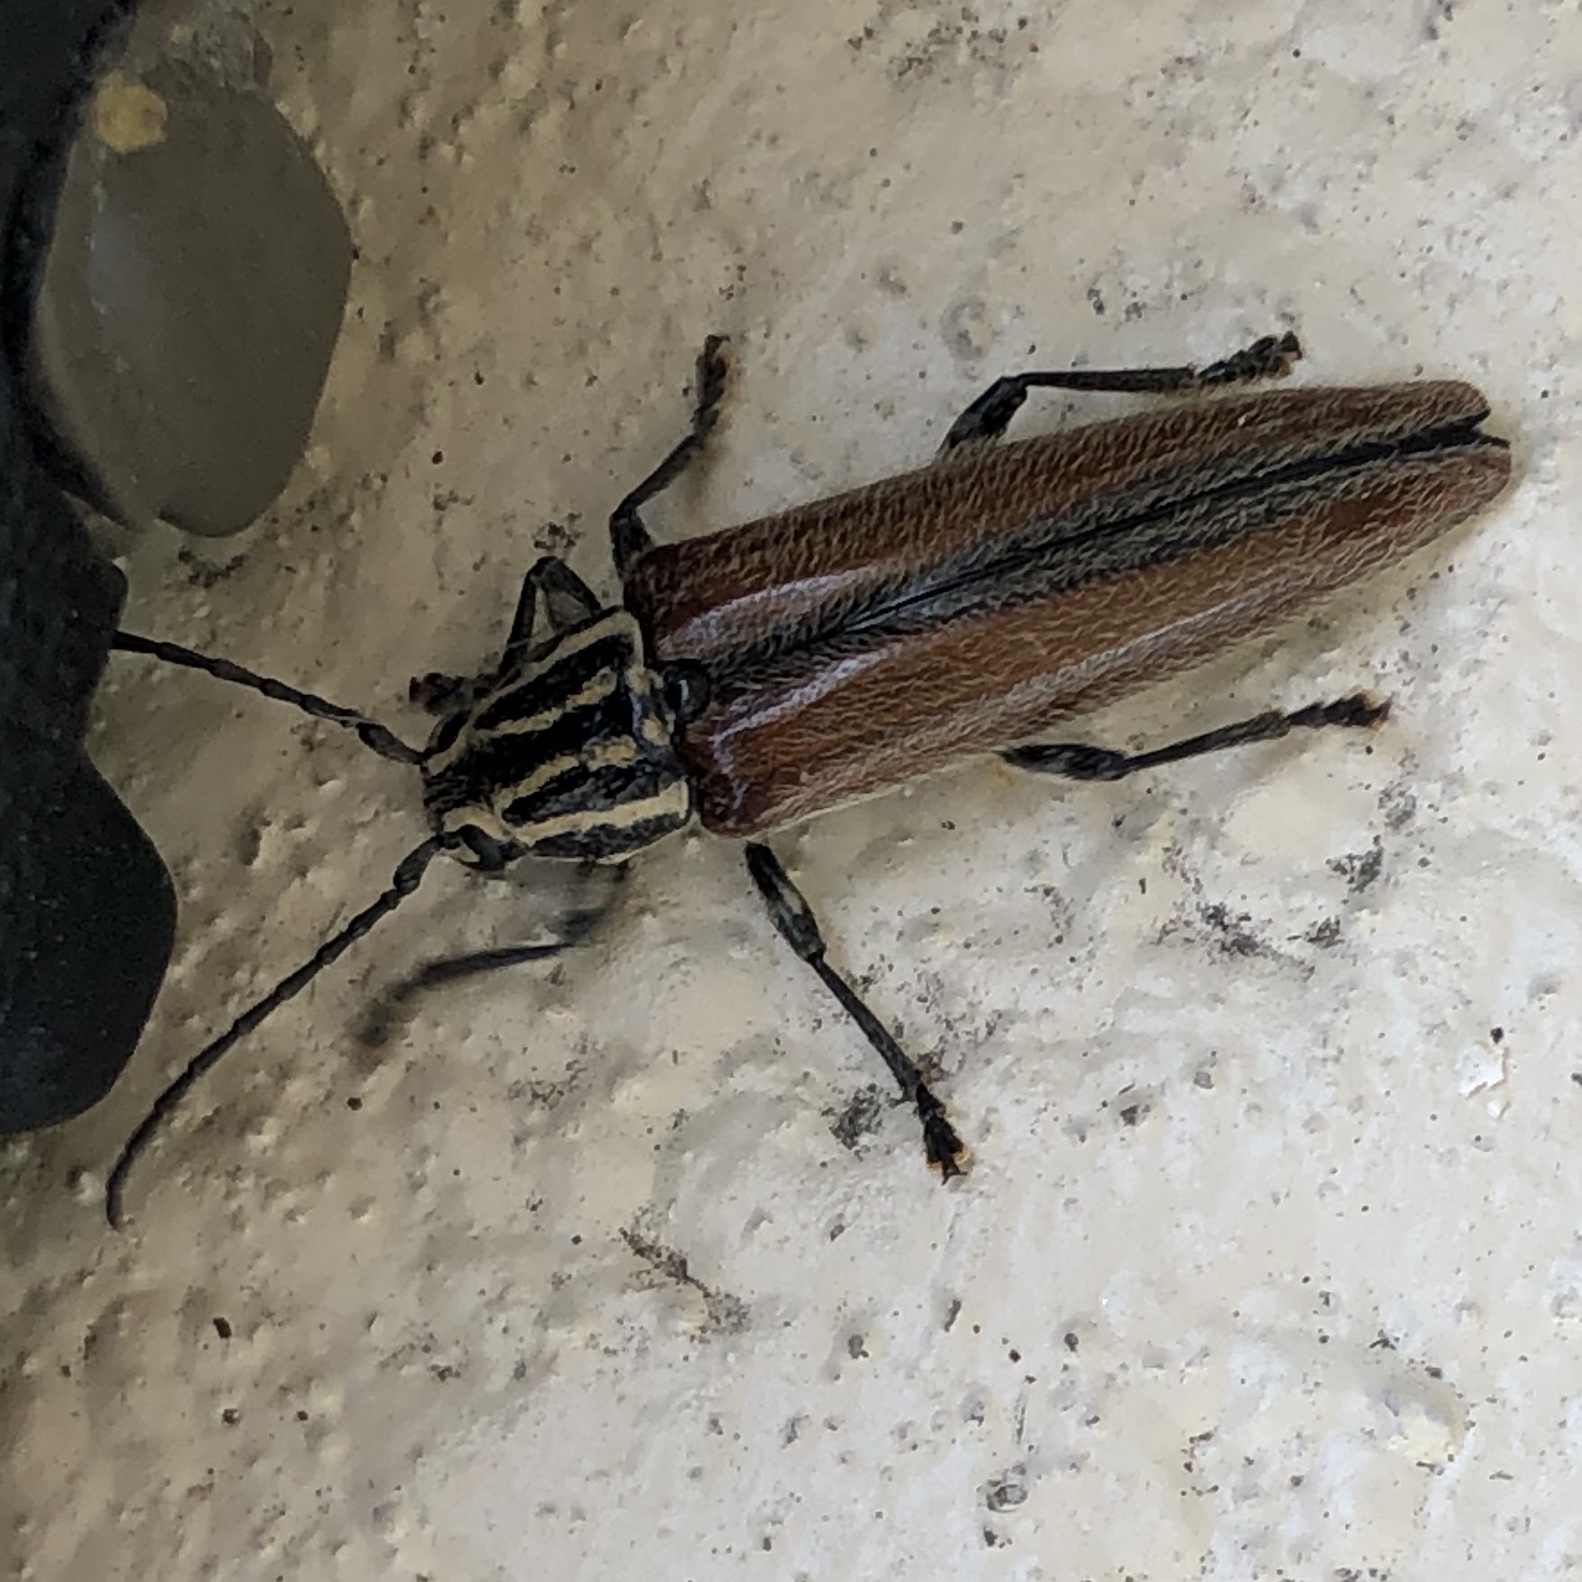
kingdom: Animalia
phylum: Arthropoda
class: Insecta
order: Coleoptera
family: Cerambycidae
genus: Osmopleura
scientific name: Osmopleura chamaeropis
